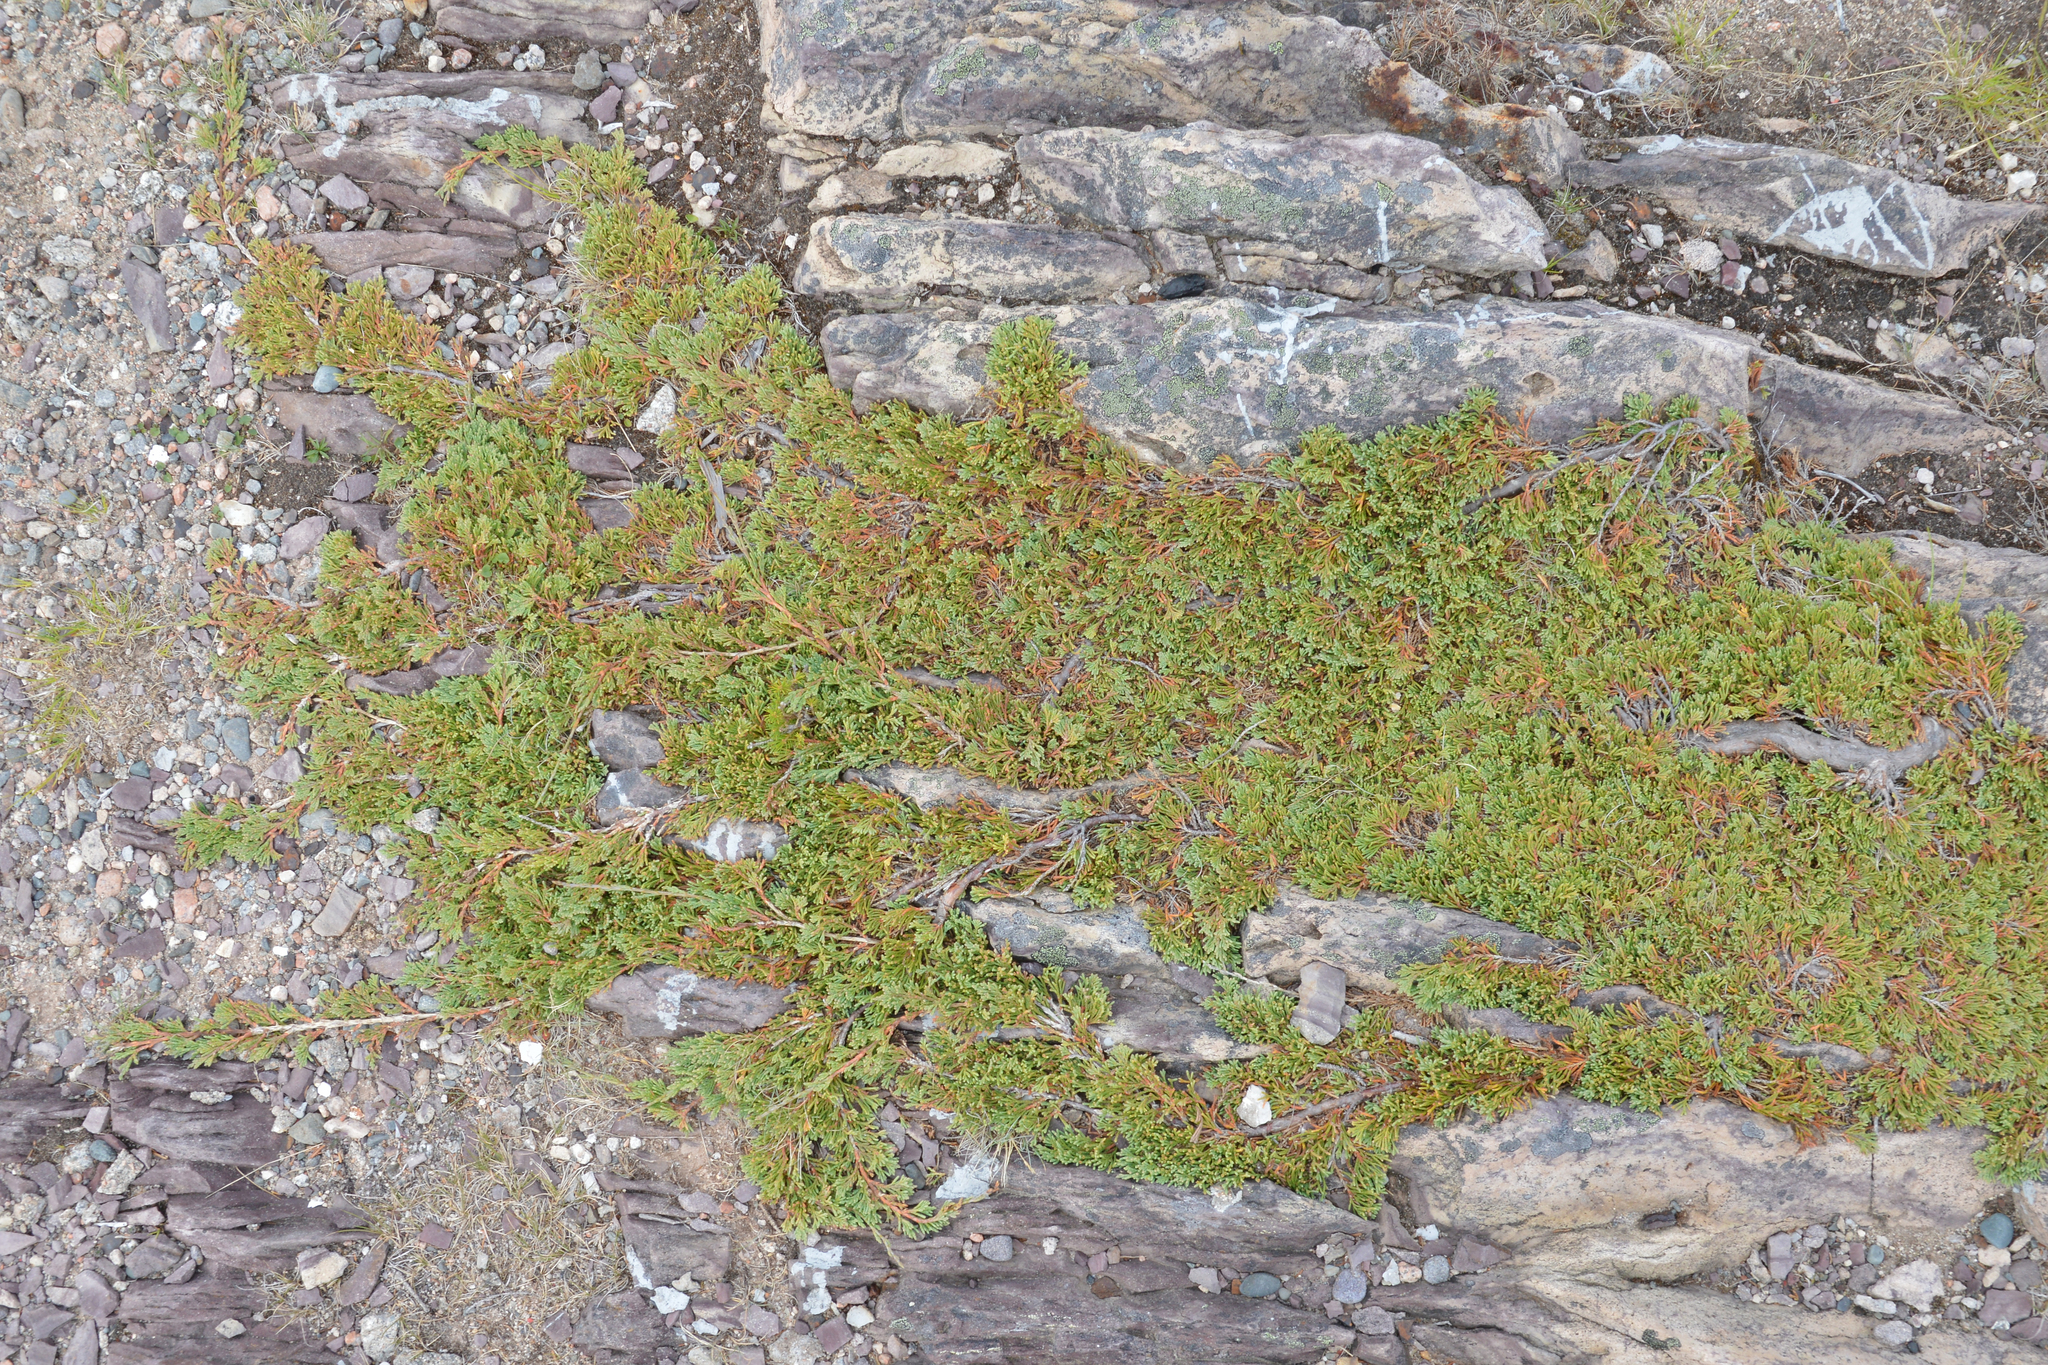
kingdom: Plantae
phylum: Tracheophyta
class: Pinopsida
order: Pinales
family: Cupressaceae
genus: Juniperus
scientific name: Juniperus horizontalis
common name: Creeping juniper
